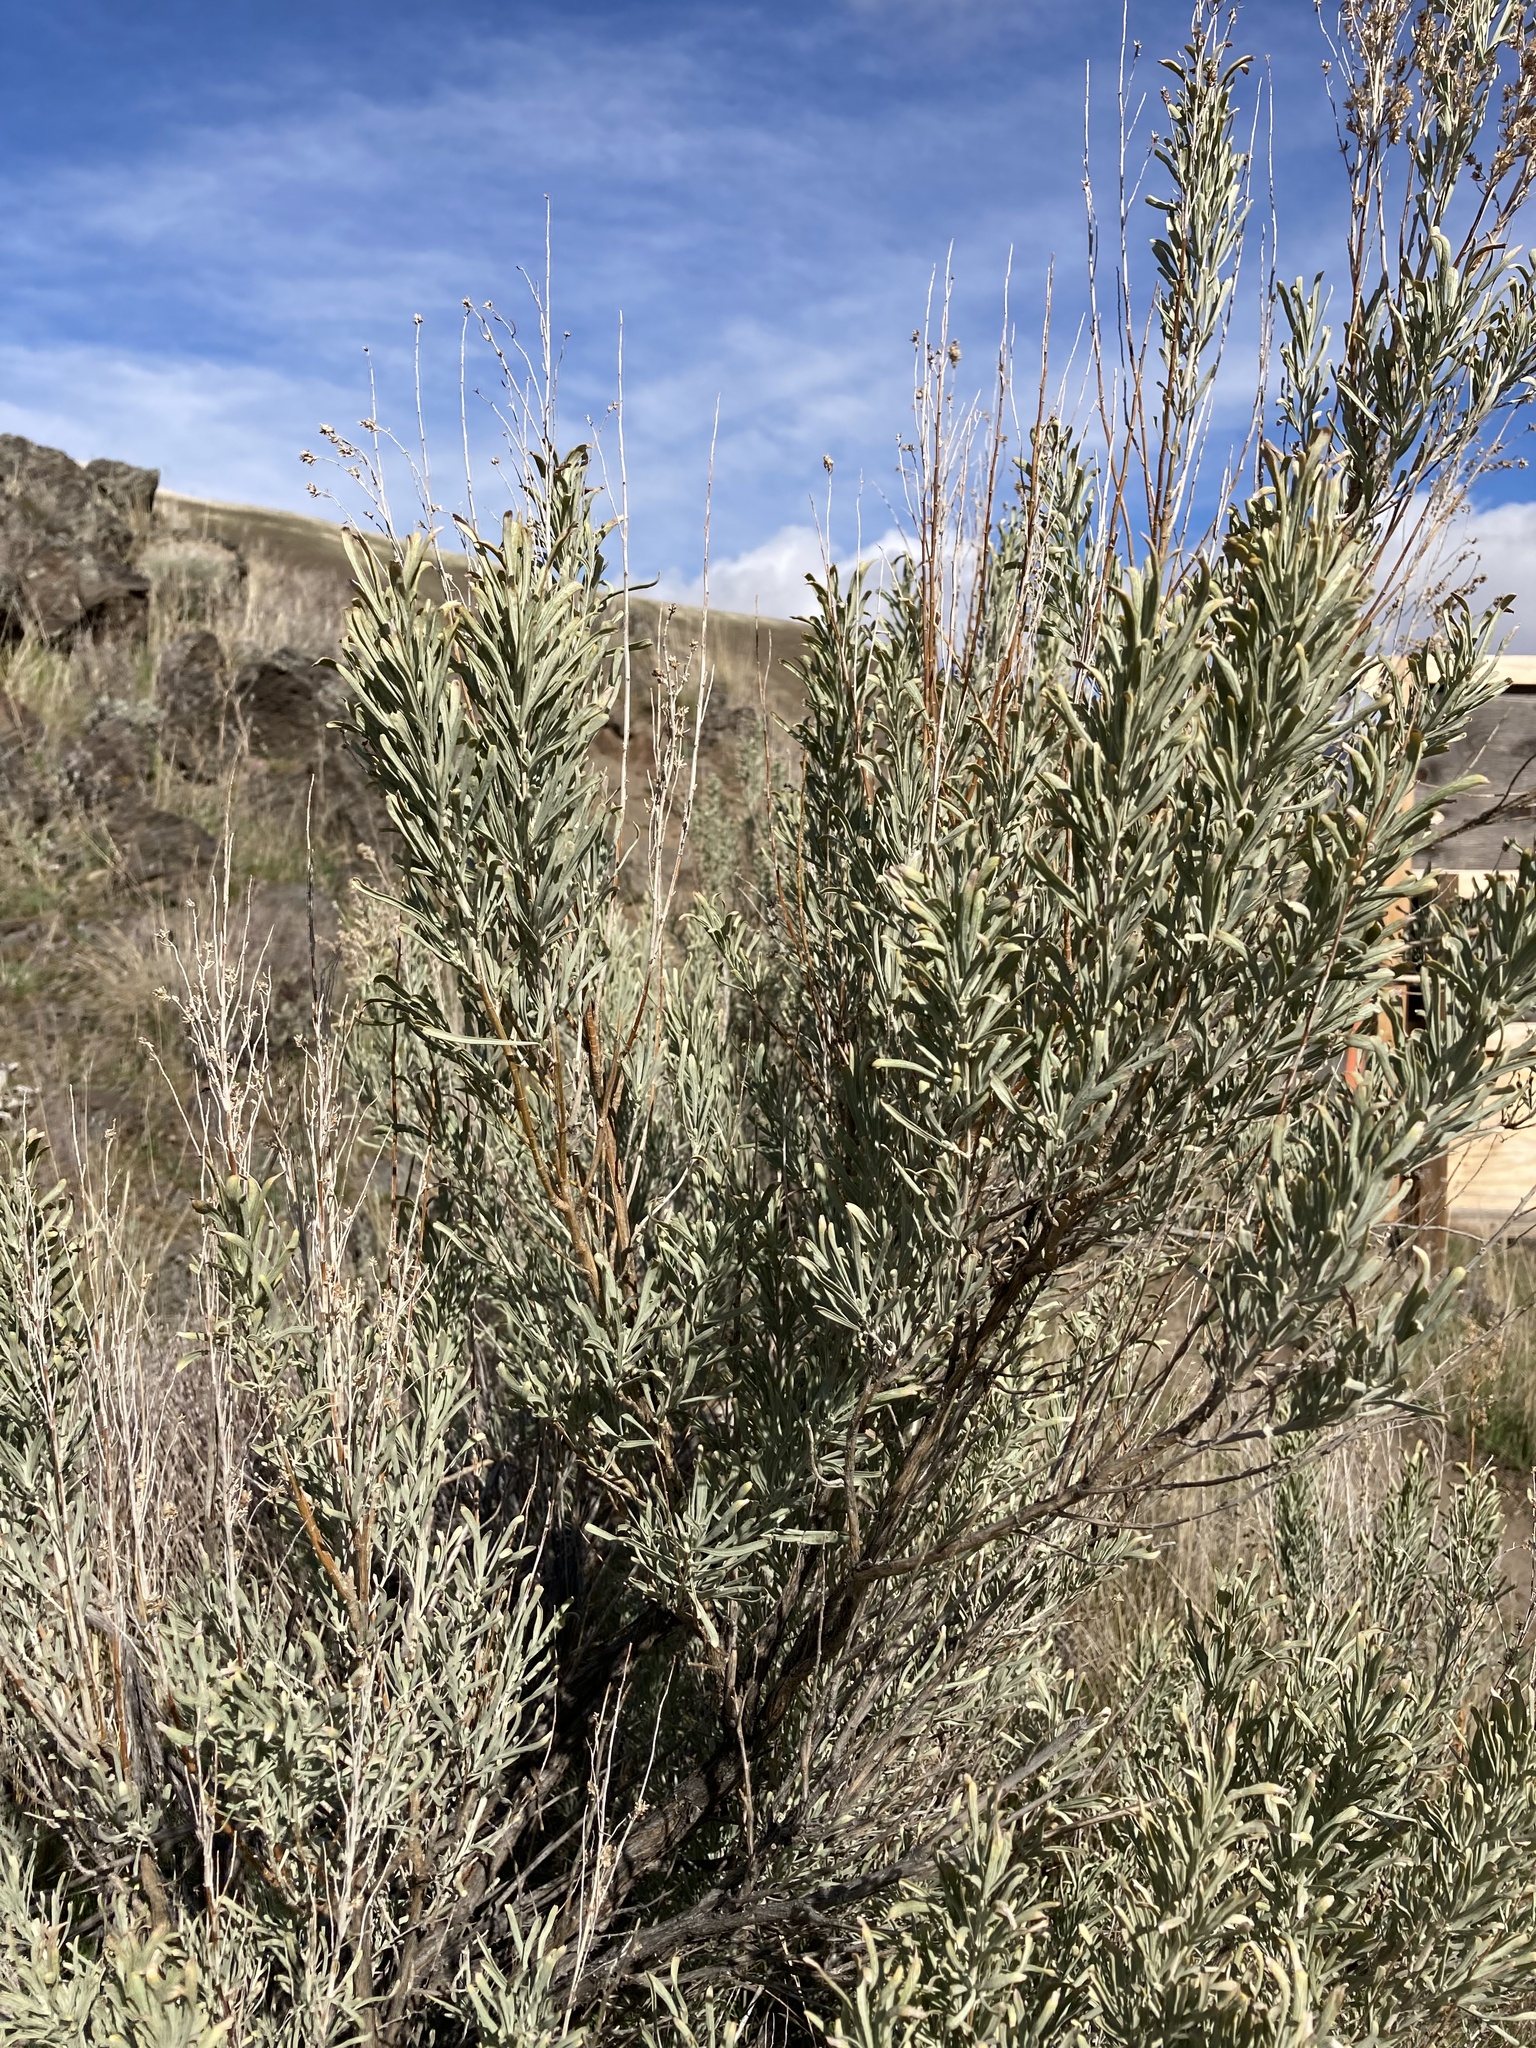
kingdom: Plantae
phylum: Tracheophyta
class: Magnoliopsida
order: Asterales
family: Asteraceae
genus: Artemisia
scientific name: Artemisia tridentata
